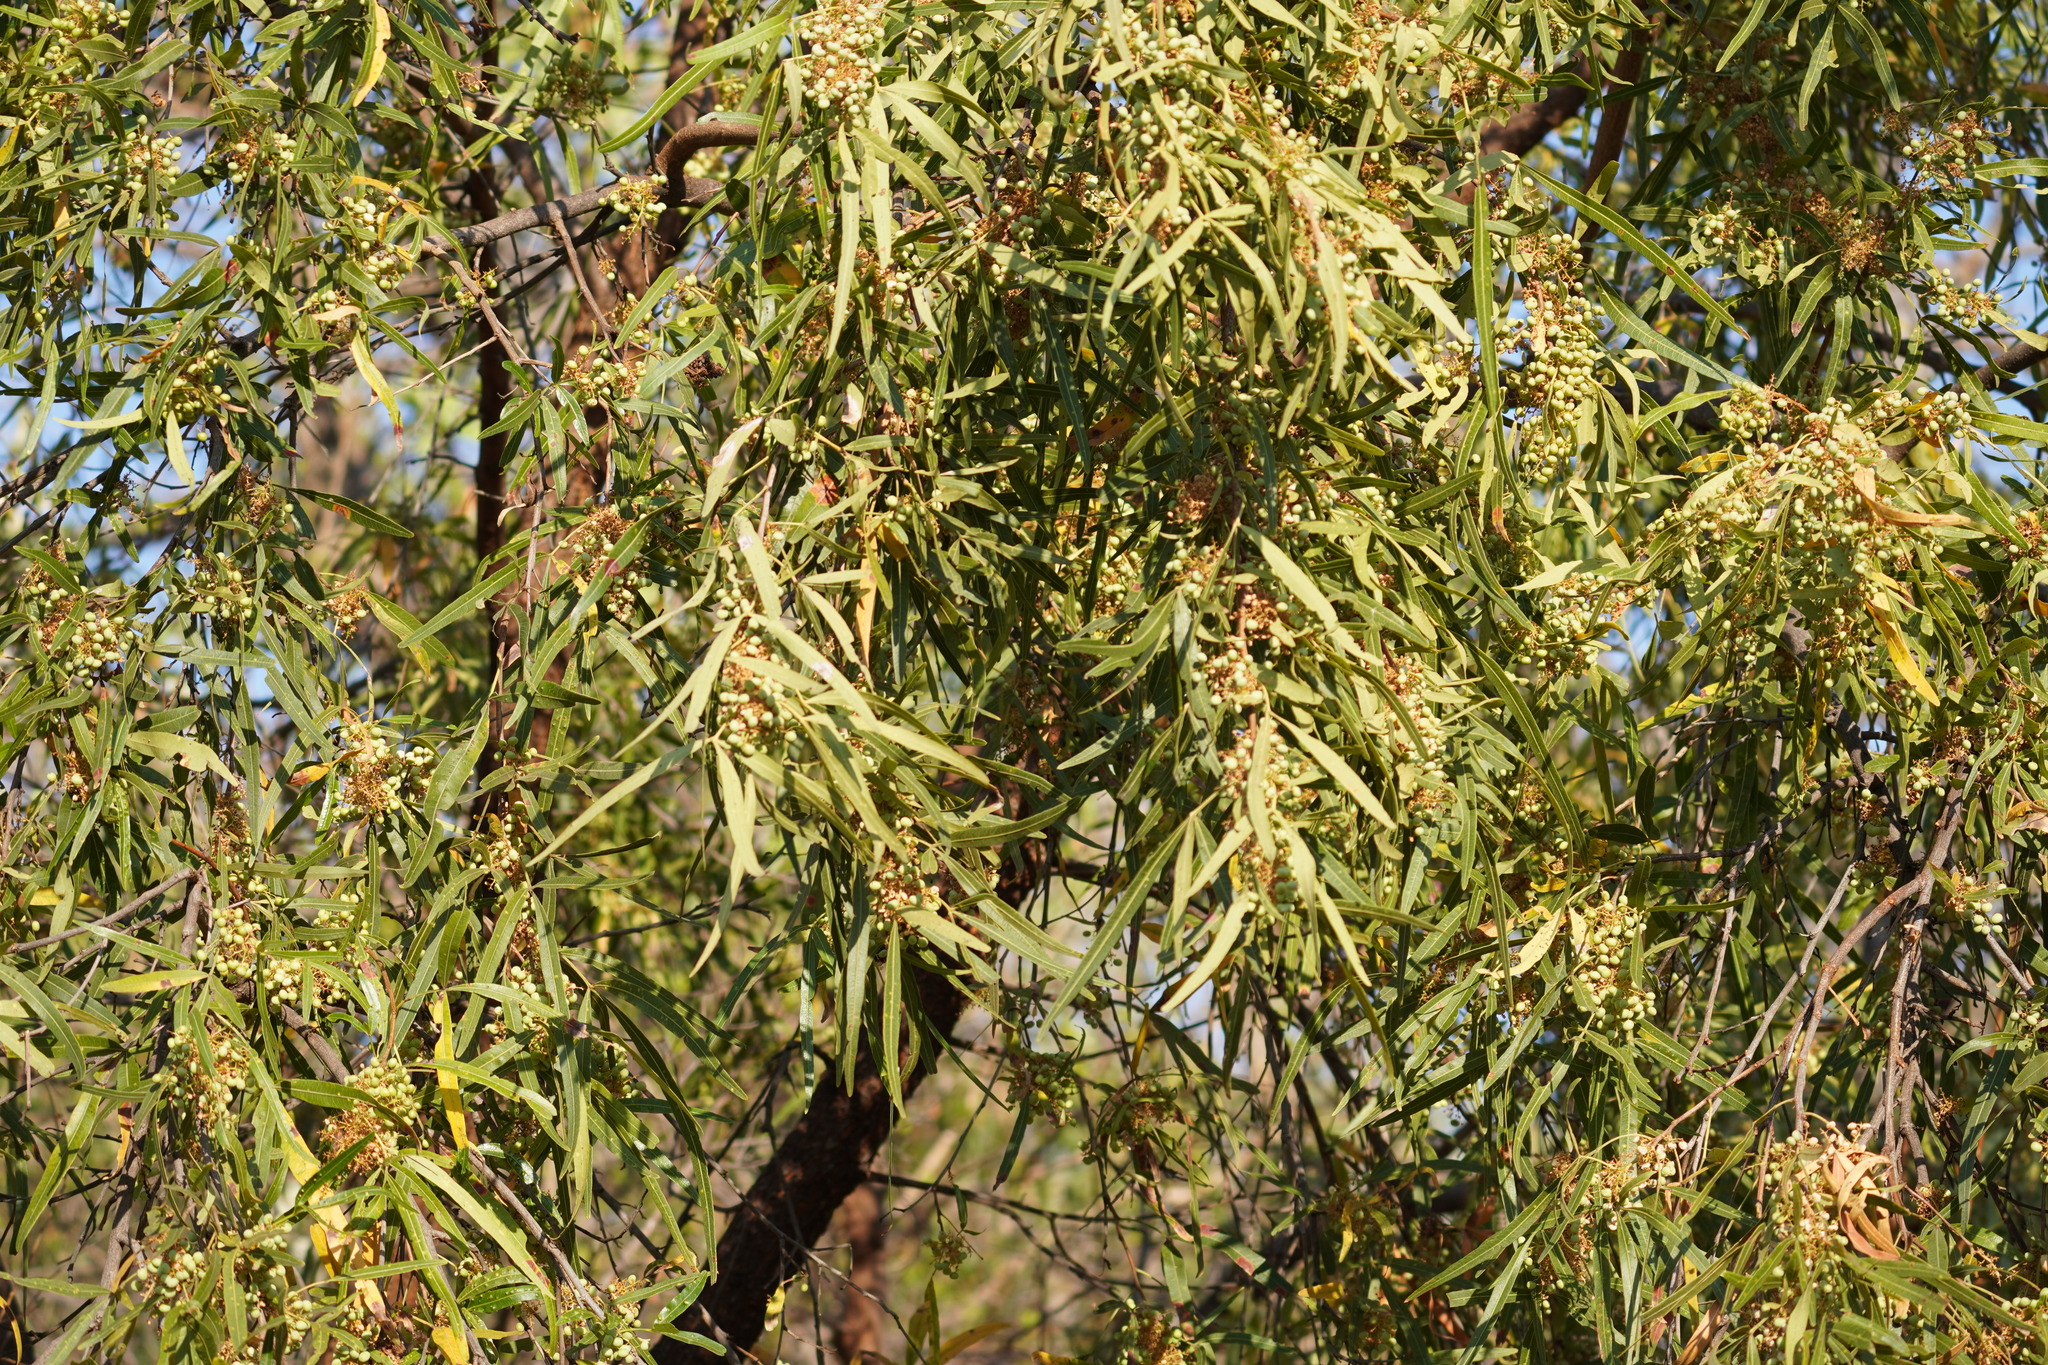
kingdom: Plantae
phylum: Tracheophyta
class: Magnoliopsida
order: Sapindales
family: Anacardiaceae
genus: Searsia
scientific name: Searsia lancea
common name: Cashew
